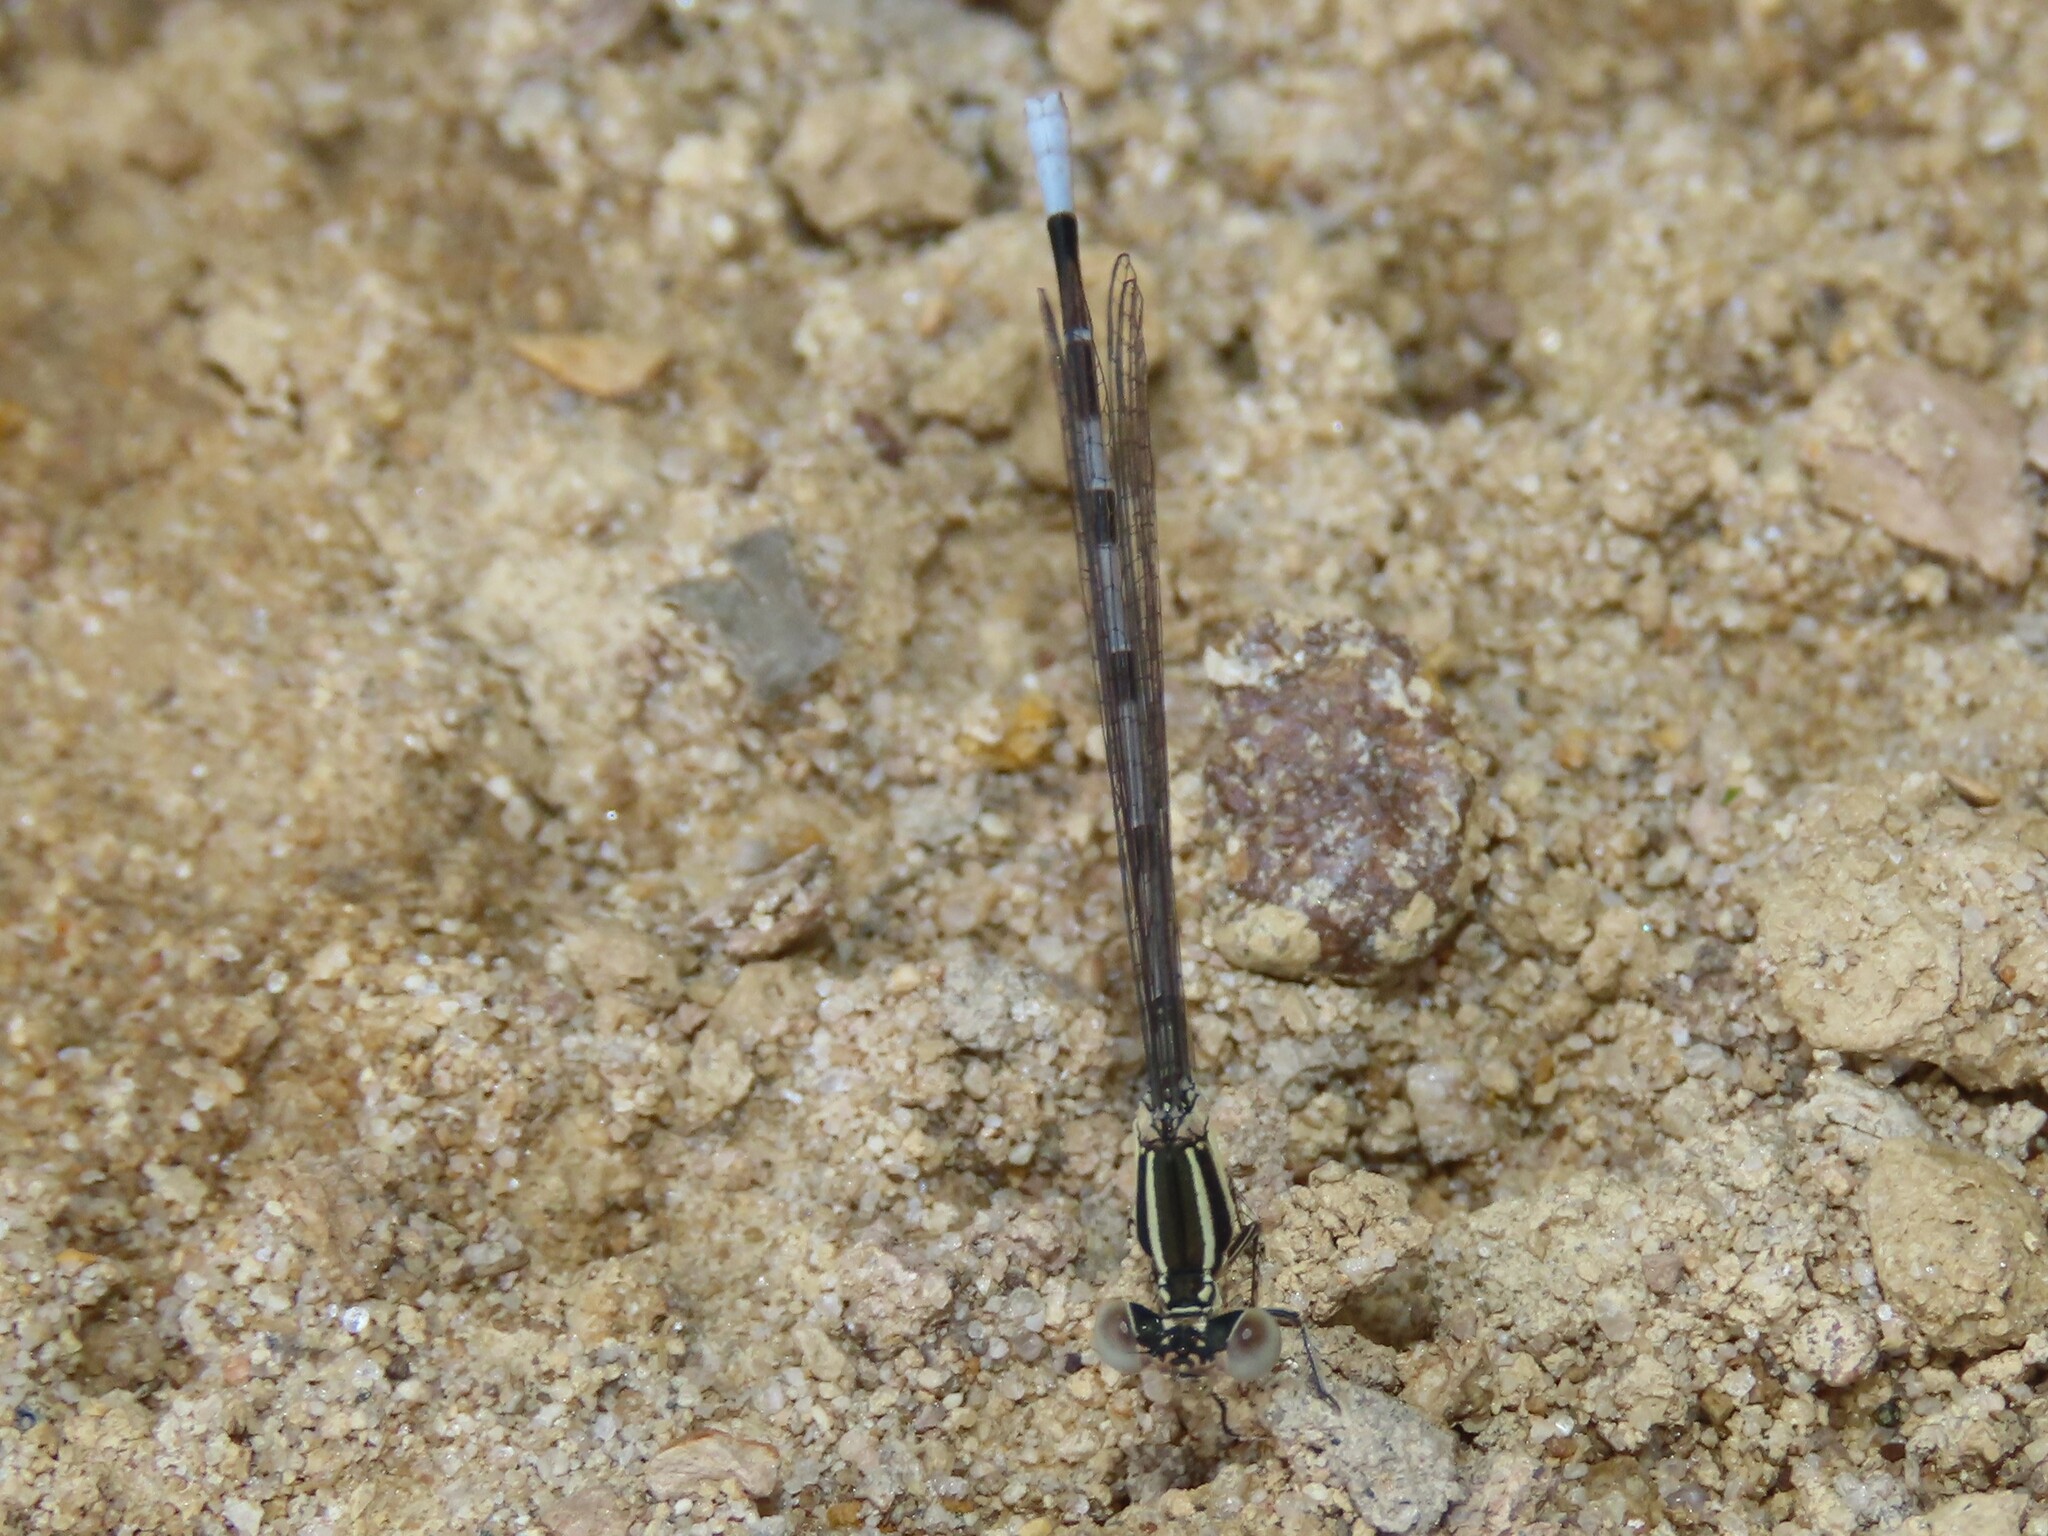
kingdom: Animalia
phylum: Arthropoda
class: Insecta
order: Odonata
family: Coenagrionidae
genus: Argia
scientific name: Argia bipunctulata
